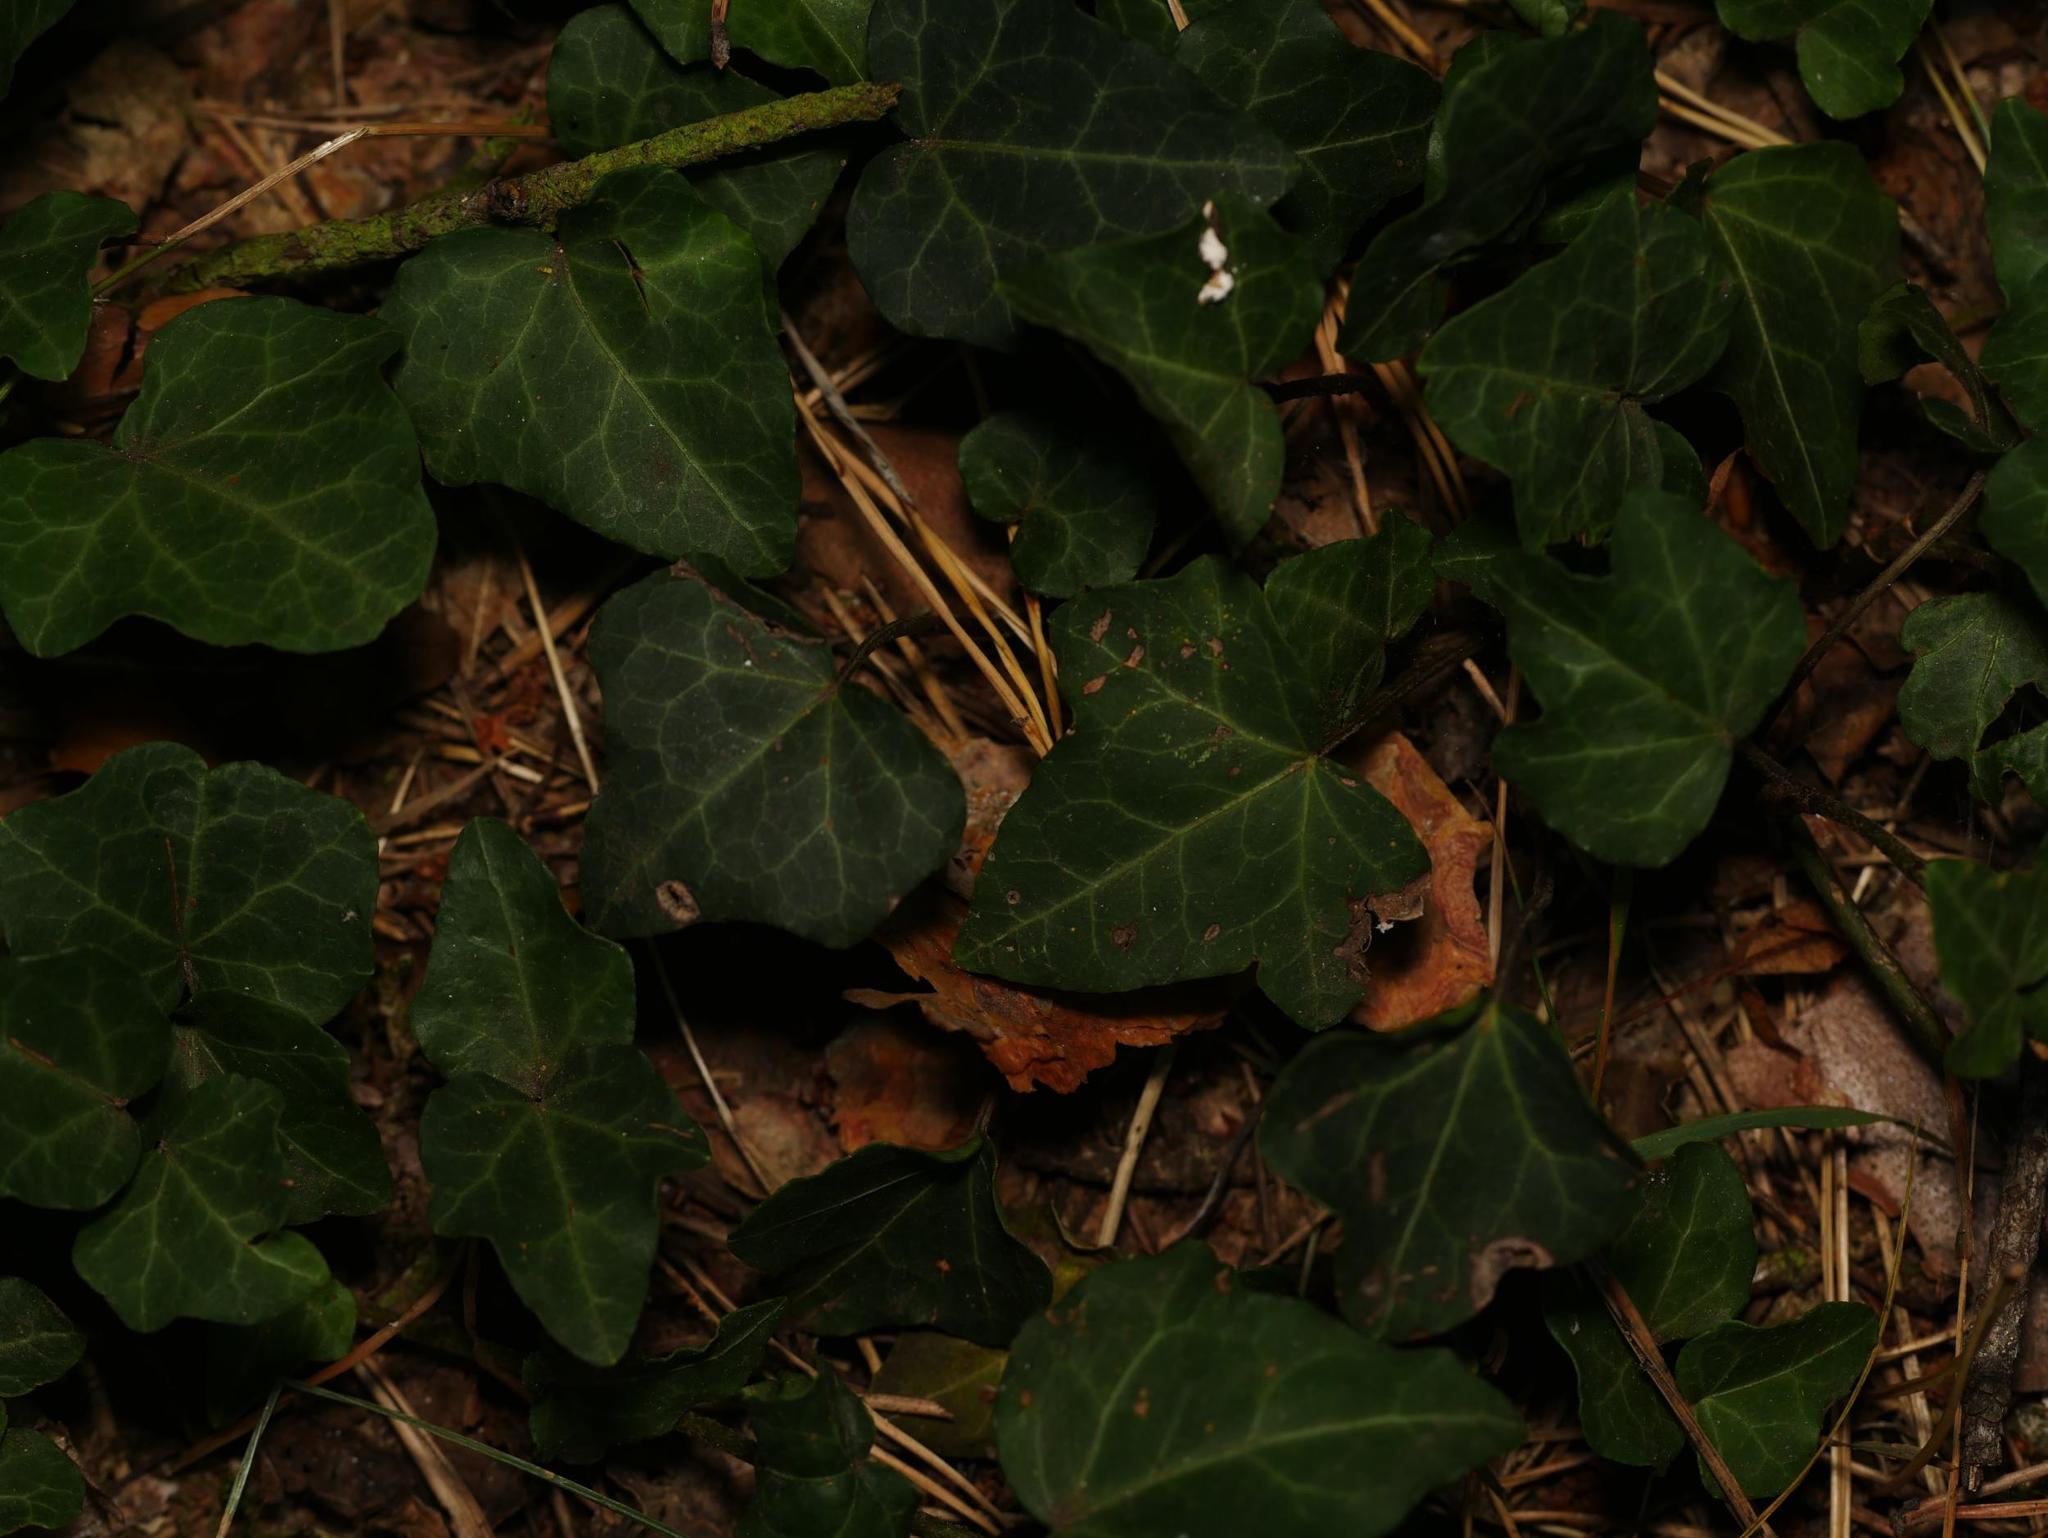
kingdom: Plantae
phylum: Tracheophyta
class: Magnoliopsida
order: Apiales
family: Araliaceae
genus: Hedera
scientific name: Hedera helix
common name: Ivy
